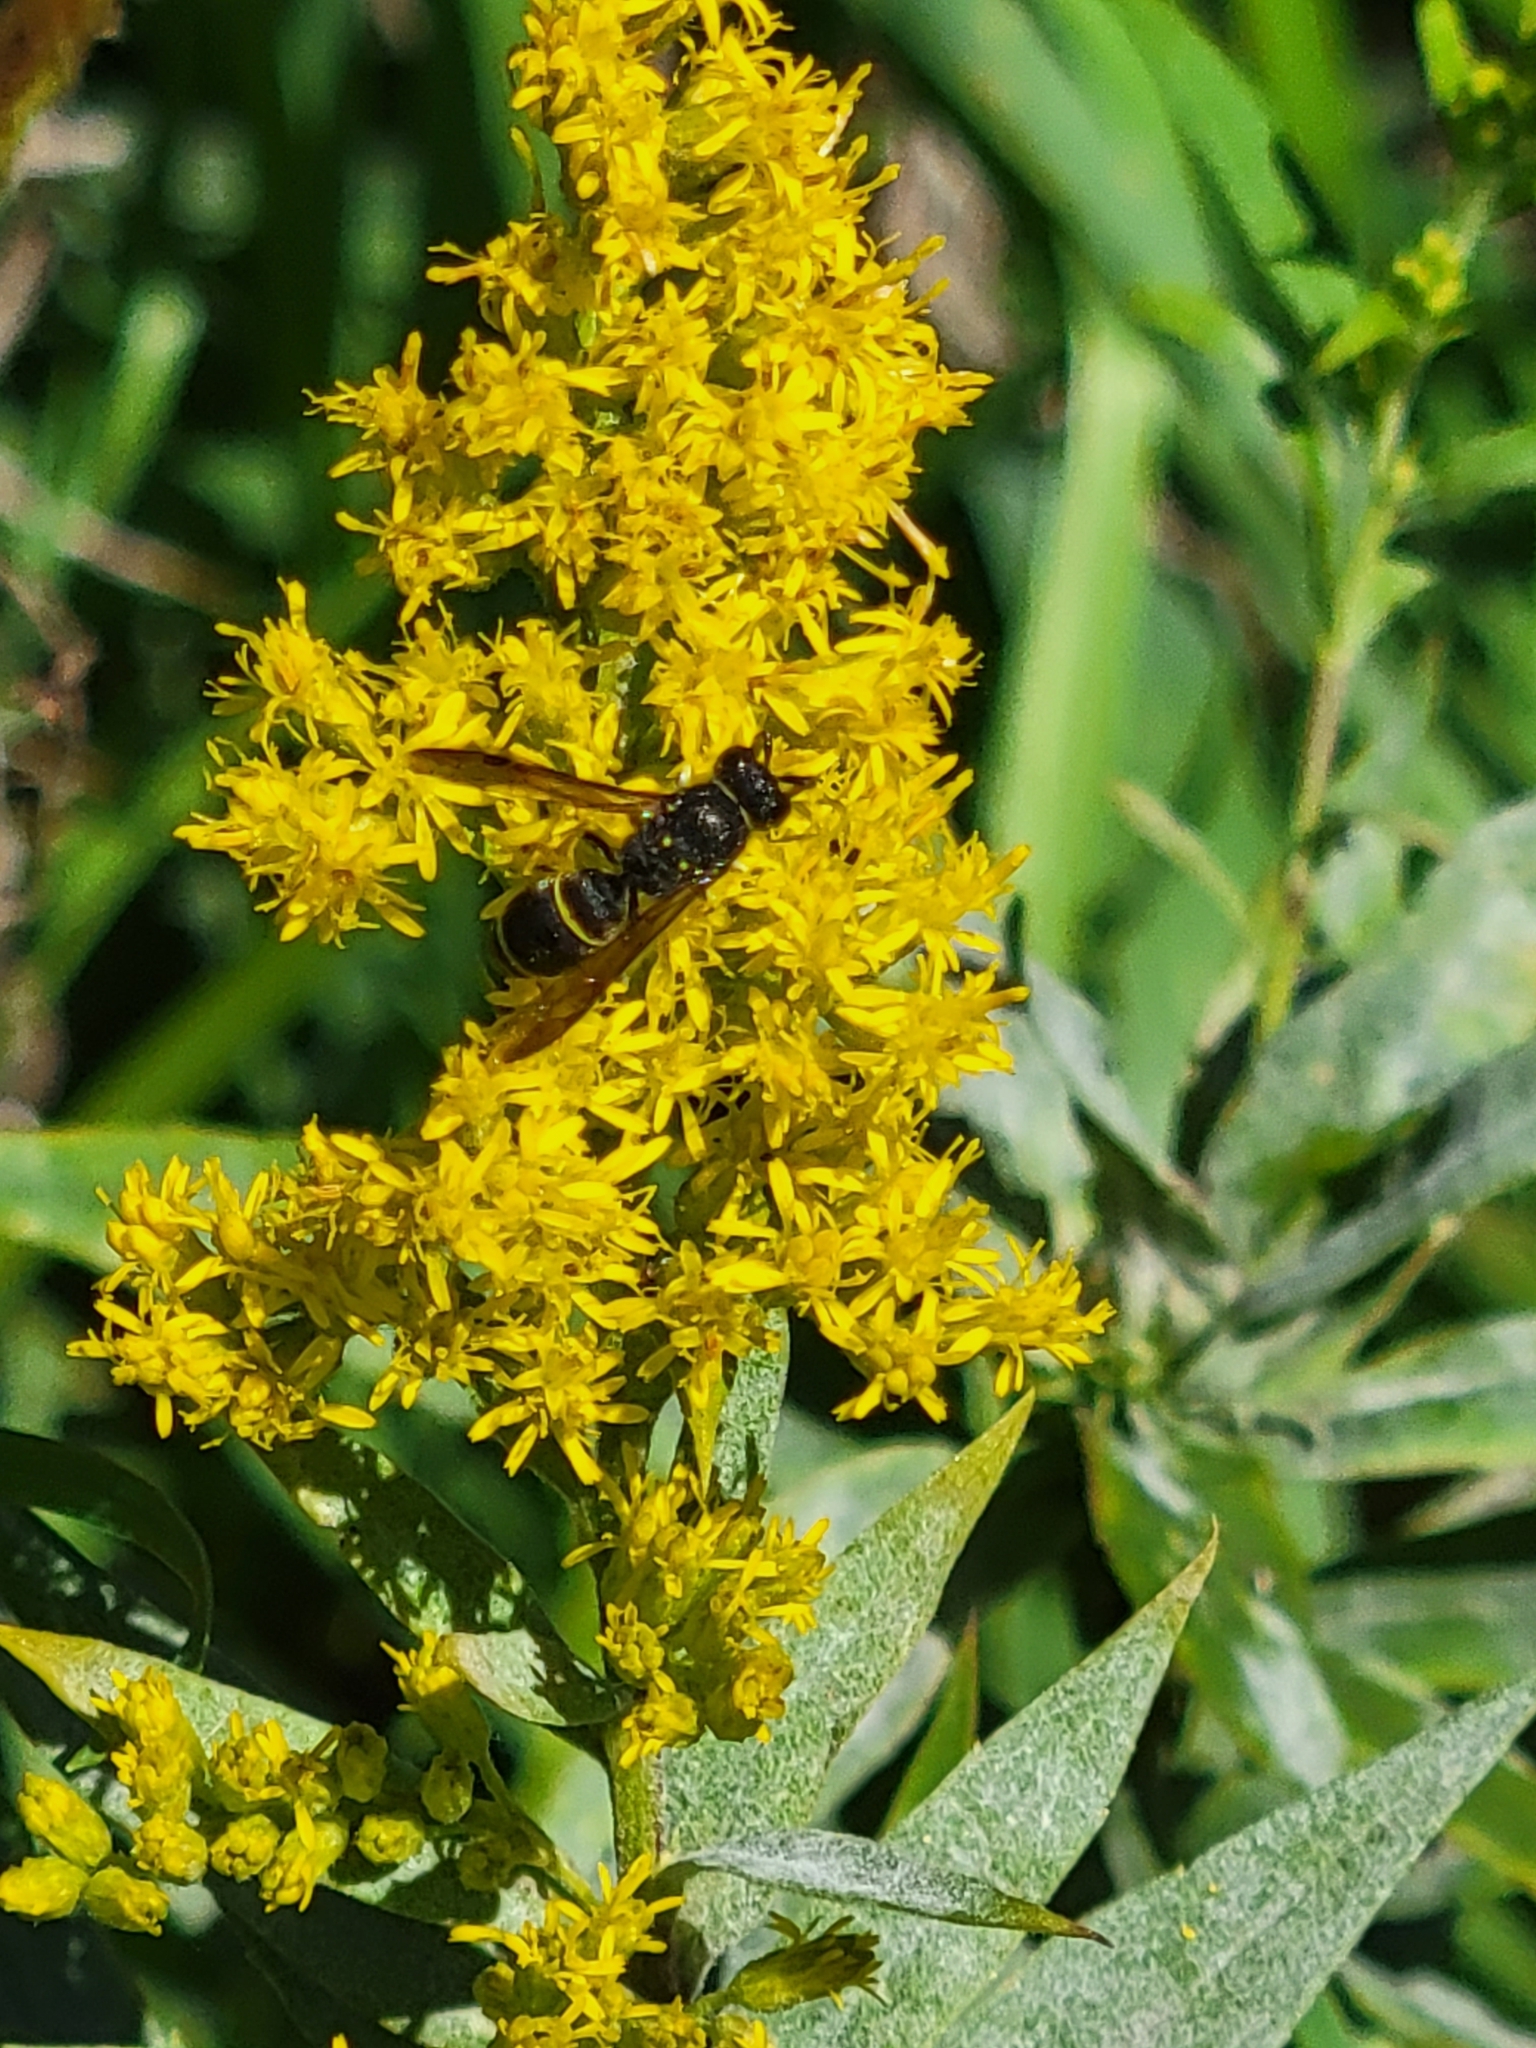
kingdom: Animalia
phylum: Arthropoda
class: Insecta
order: Hymenoptera
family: Vespidae
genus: Ancistrocerus
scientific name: Ancistrocerus adiabatus
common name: Bramble mason wasp
